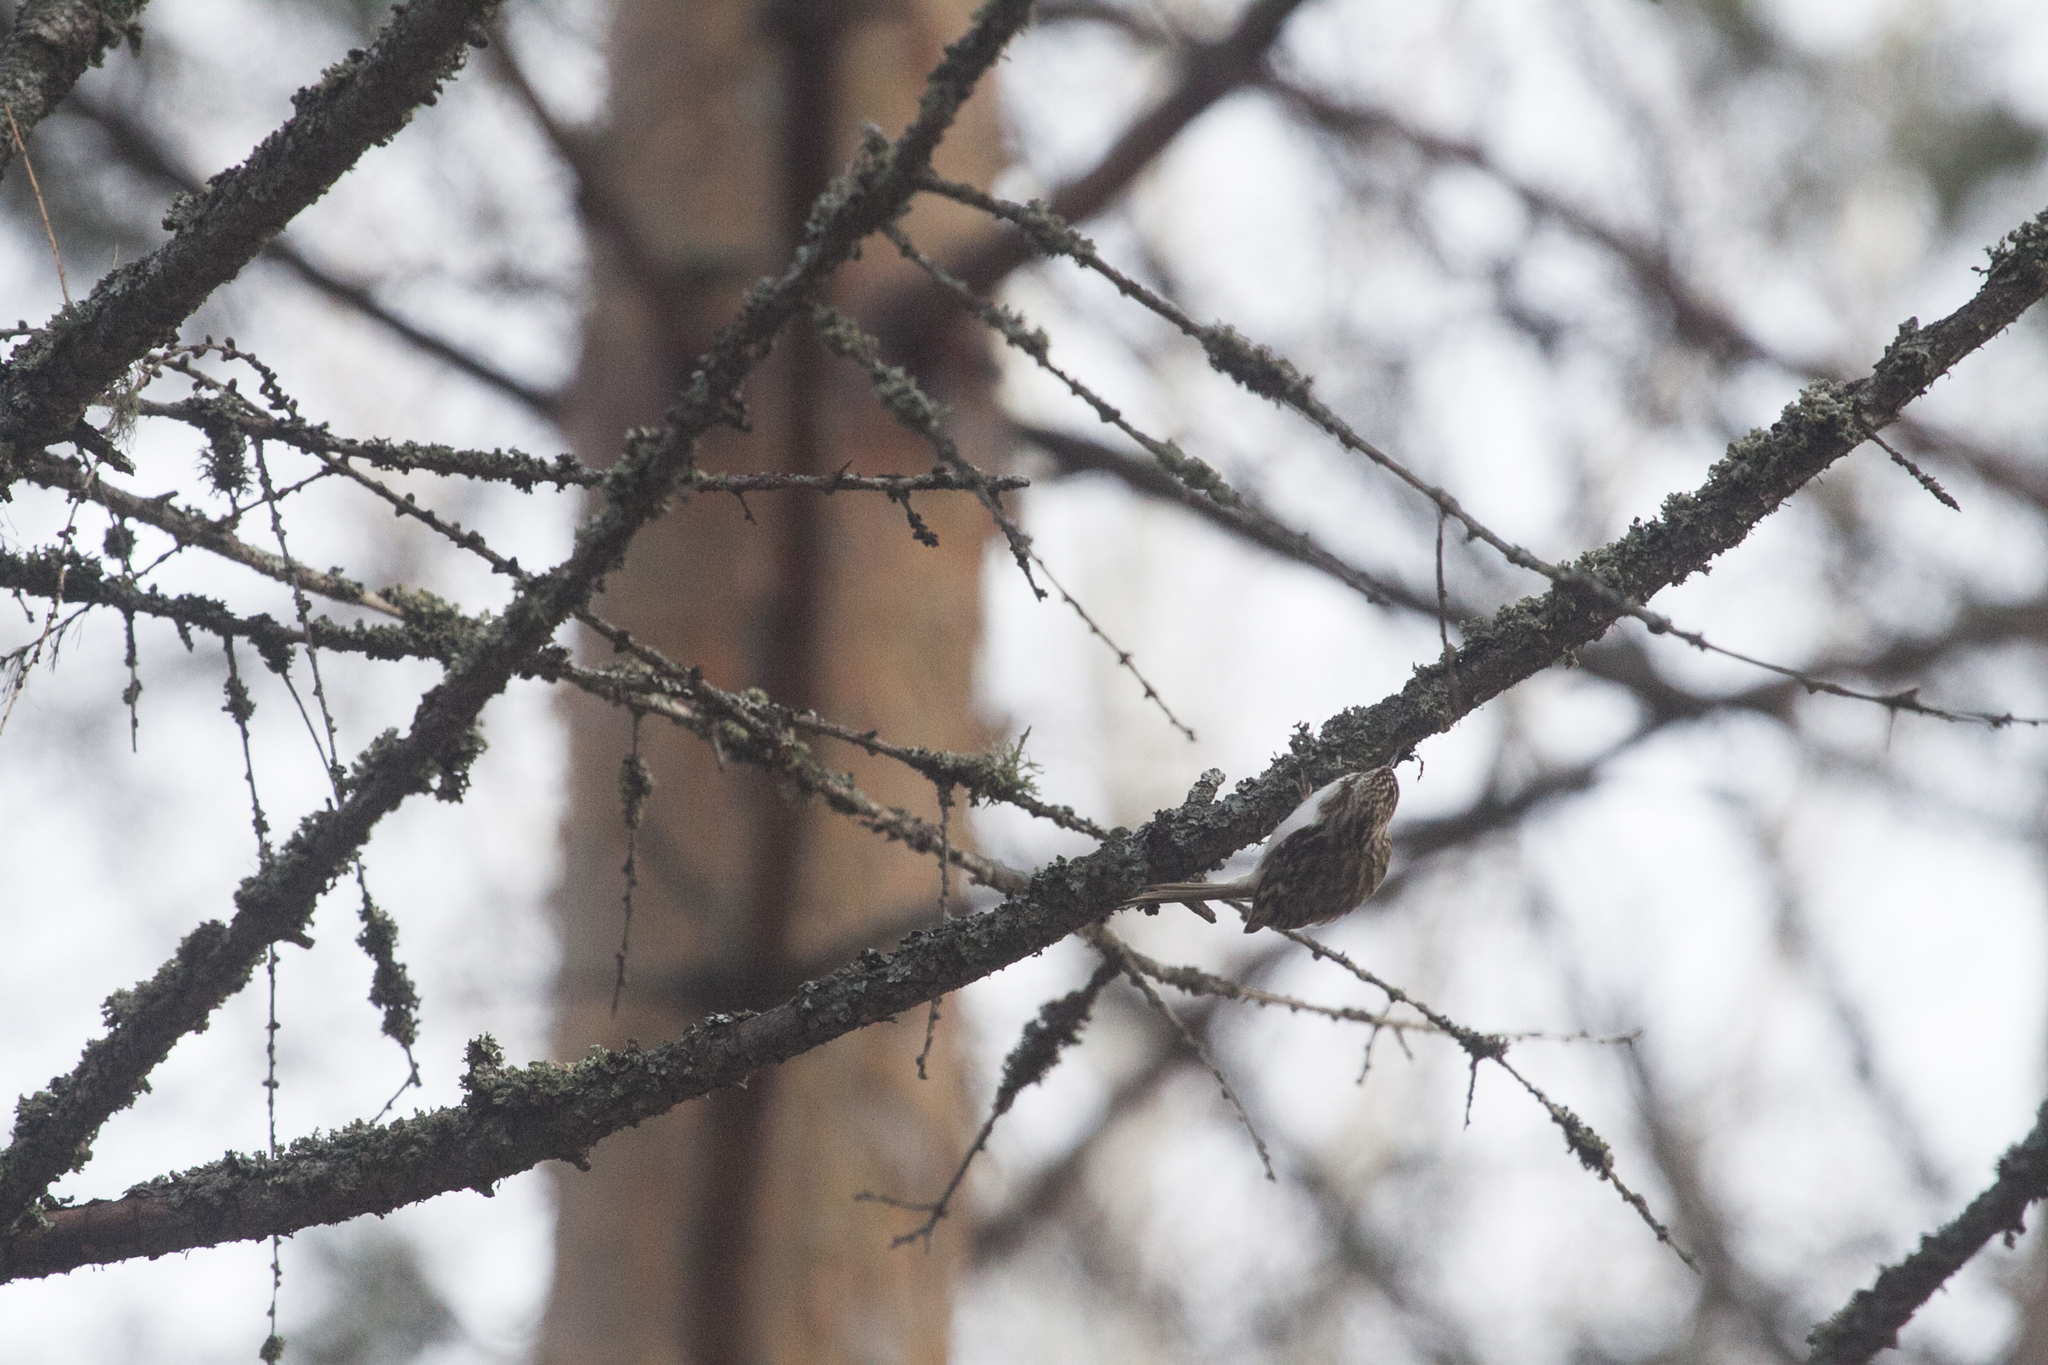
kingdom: Animalia
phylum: Chordata
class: Aves
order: Passeriformes
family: Certhiidae
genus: Certhia
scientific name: Certhia familiaris
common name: Eurasian treecreeper
